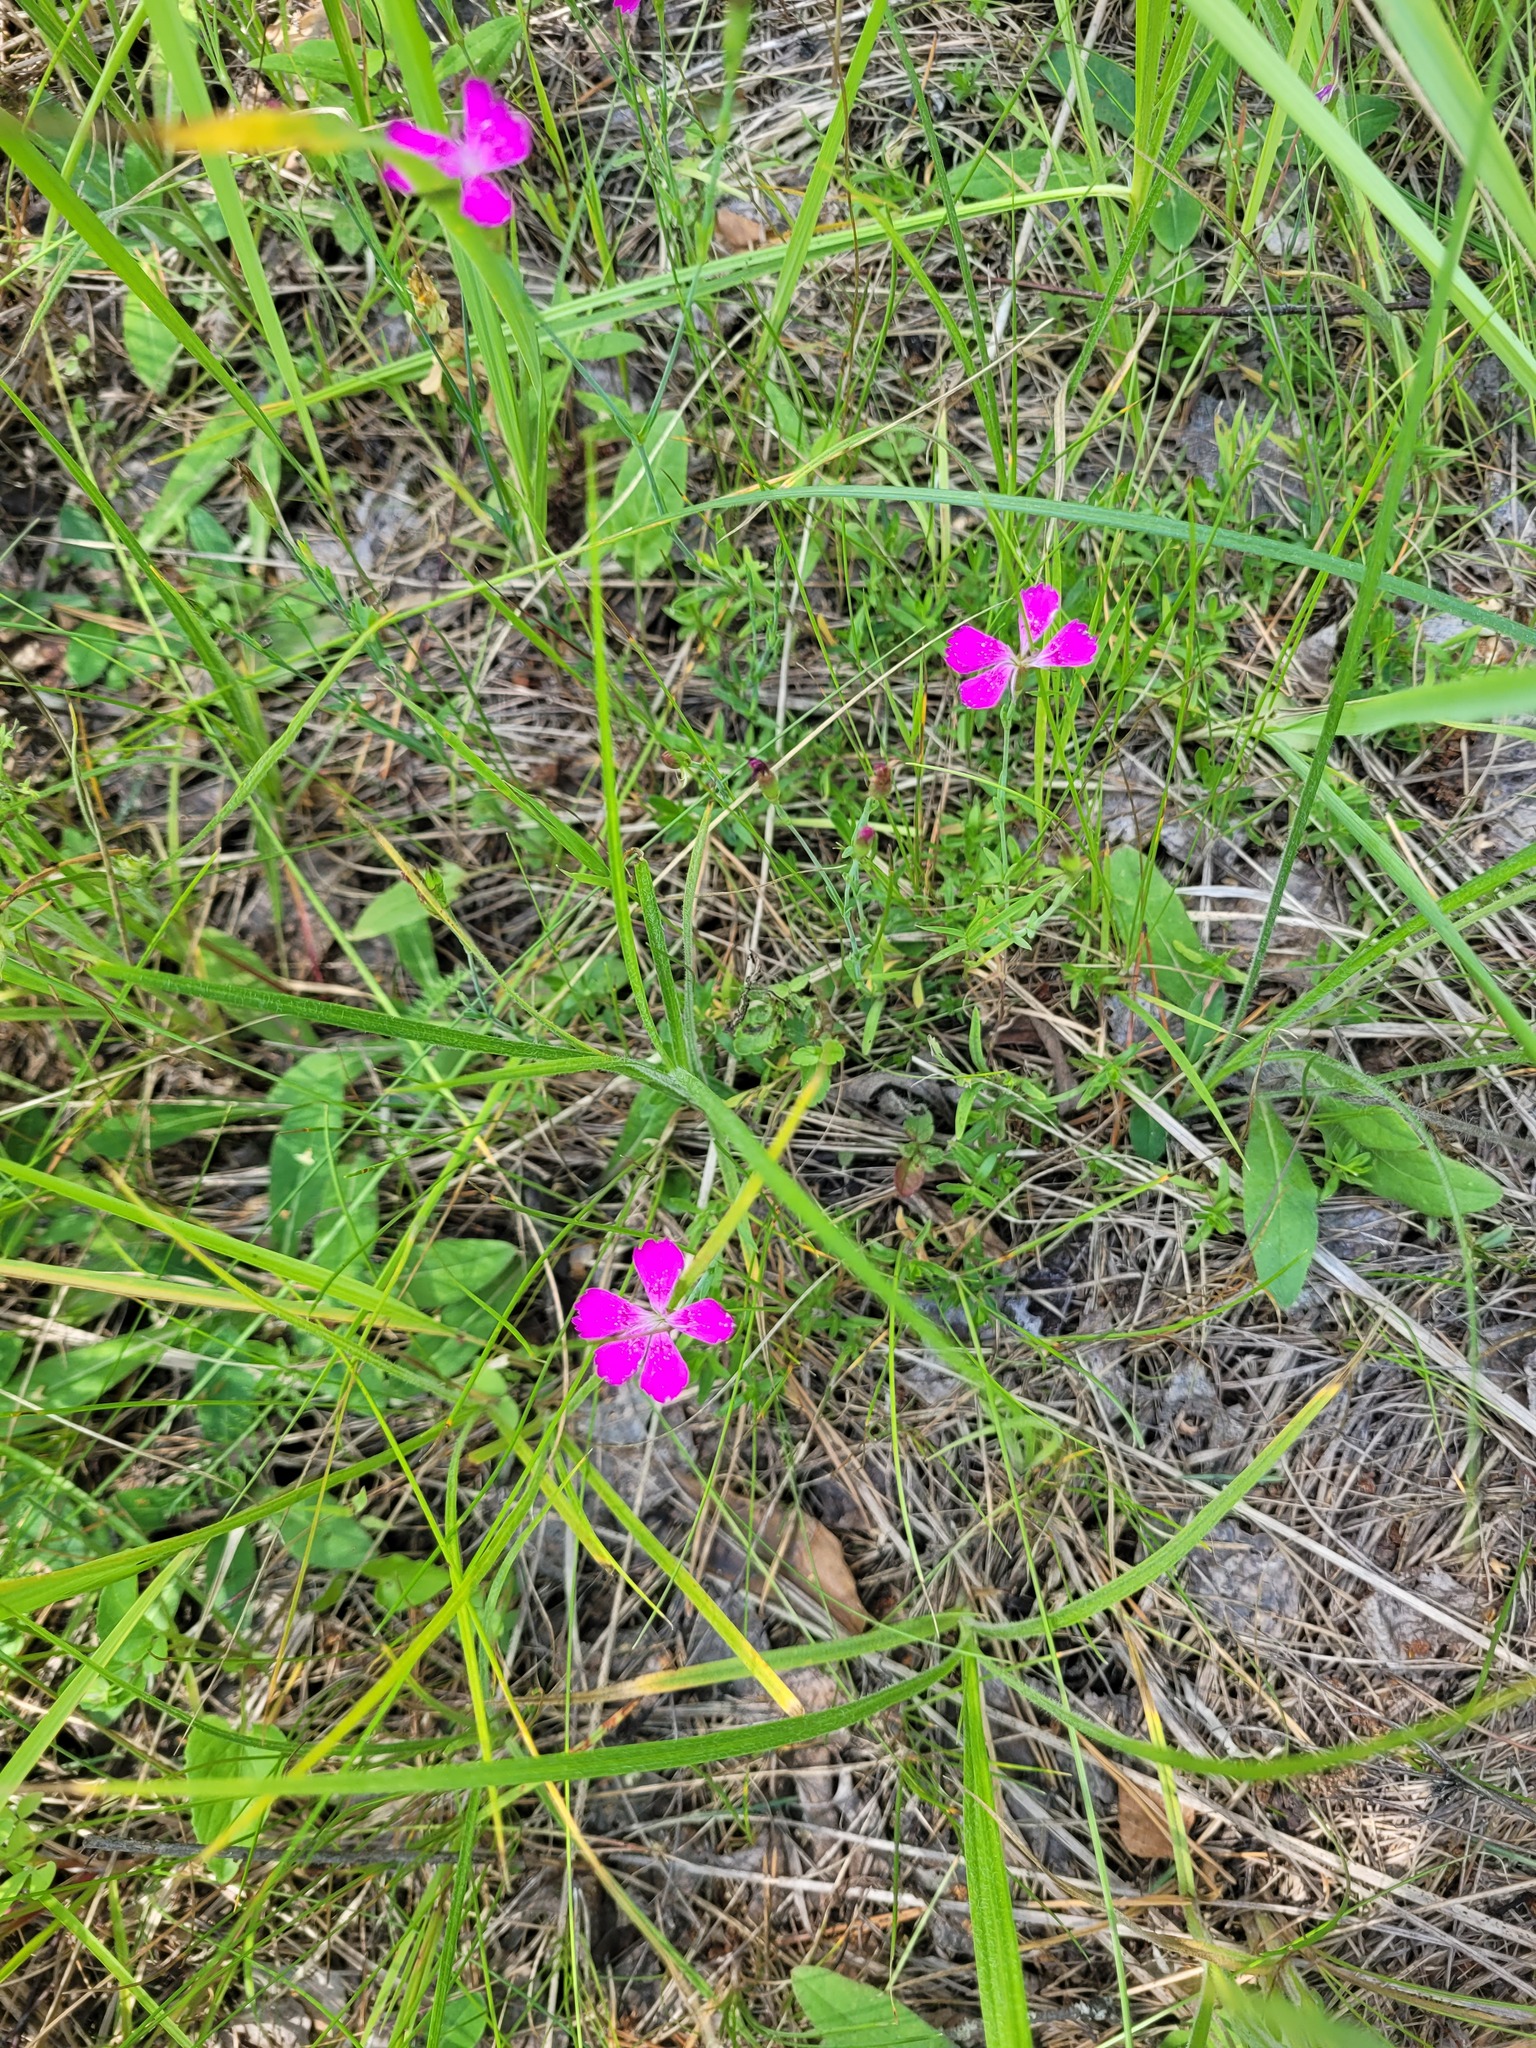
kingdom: Plantae
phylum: Tracheophyta
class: Magnoliopsida
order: Caryophyllales
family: Caryophyllaceae
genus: Dianthus
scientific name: Dianthus deltoides
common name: Maiden pink
